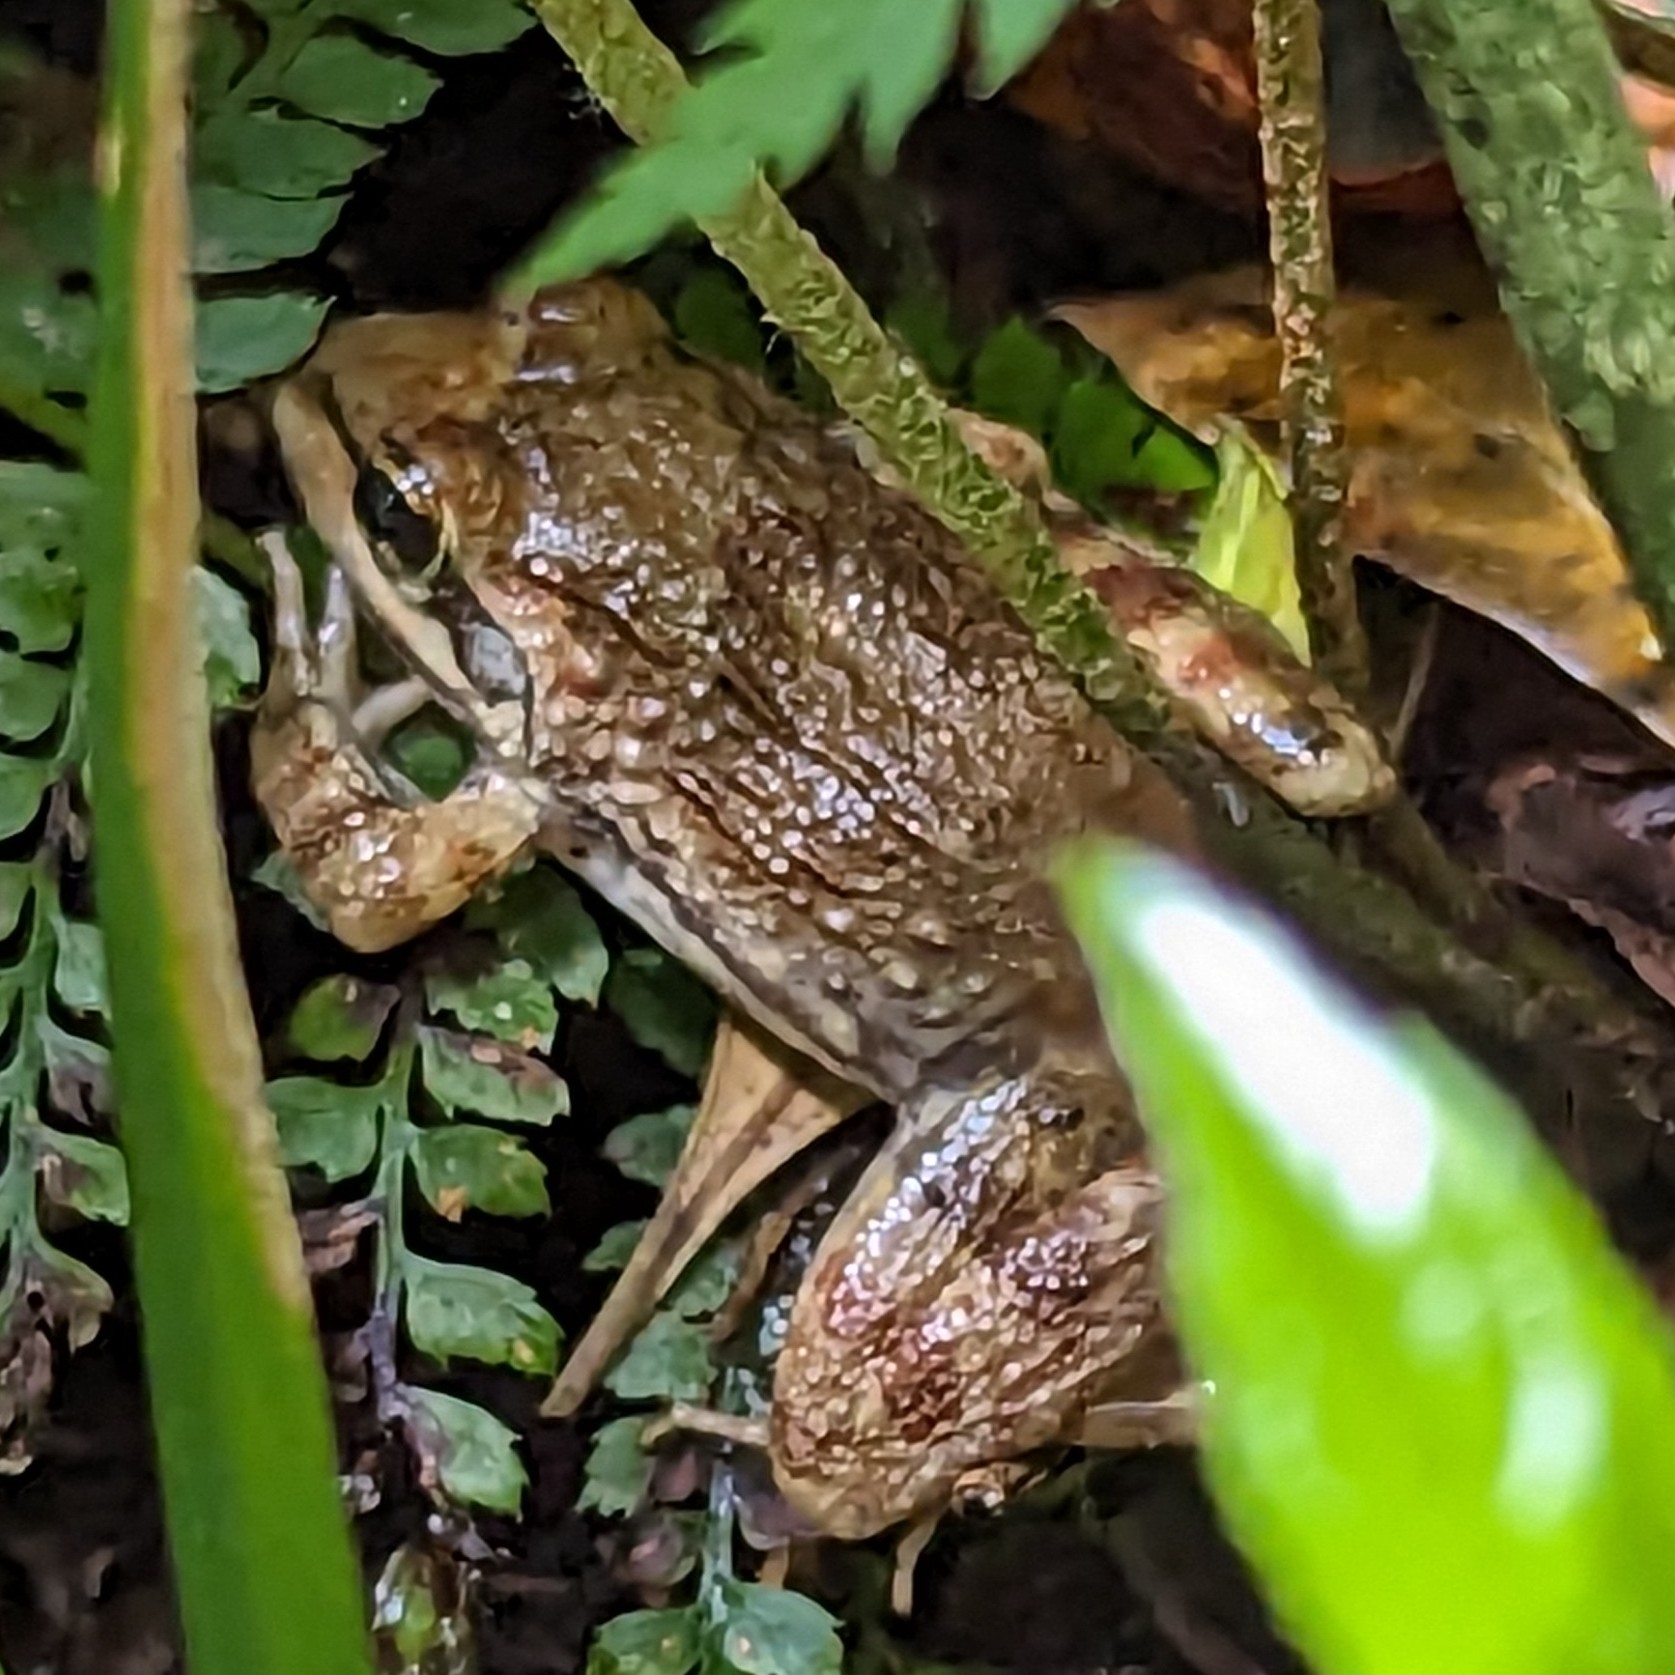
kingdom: Animalia
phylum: Chordata
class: Amphibia
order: Anura
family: Pyxicephalidae
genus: Amietia
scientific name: Amietia fuscigula
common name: Cape rana
